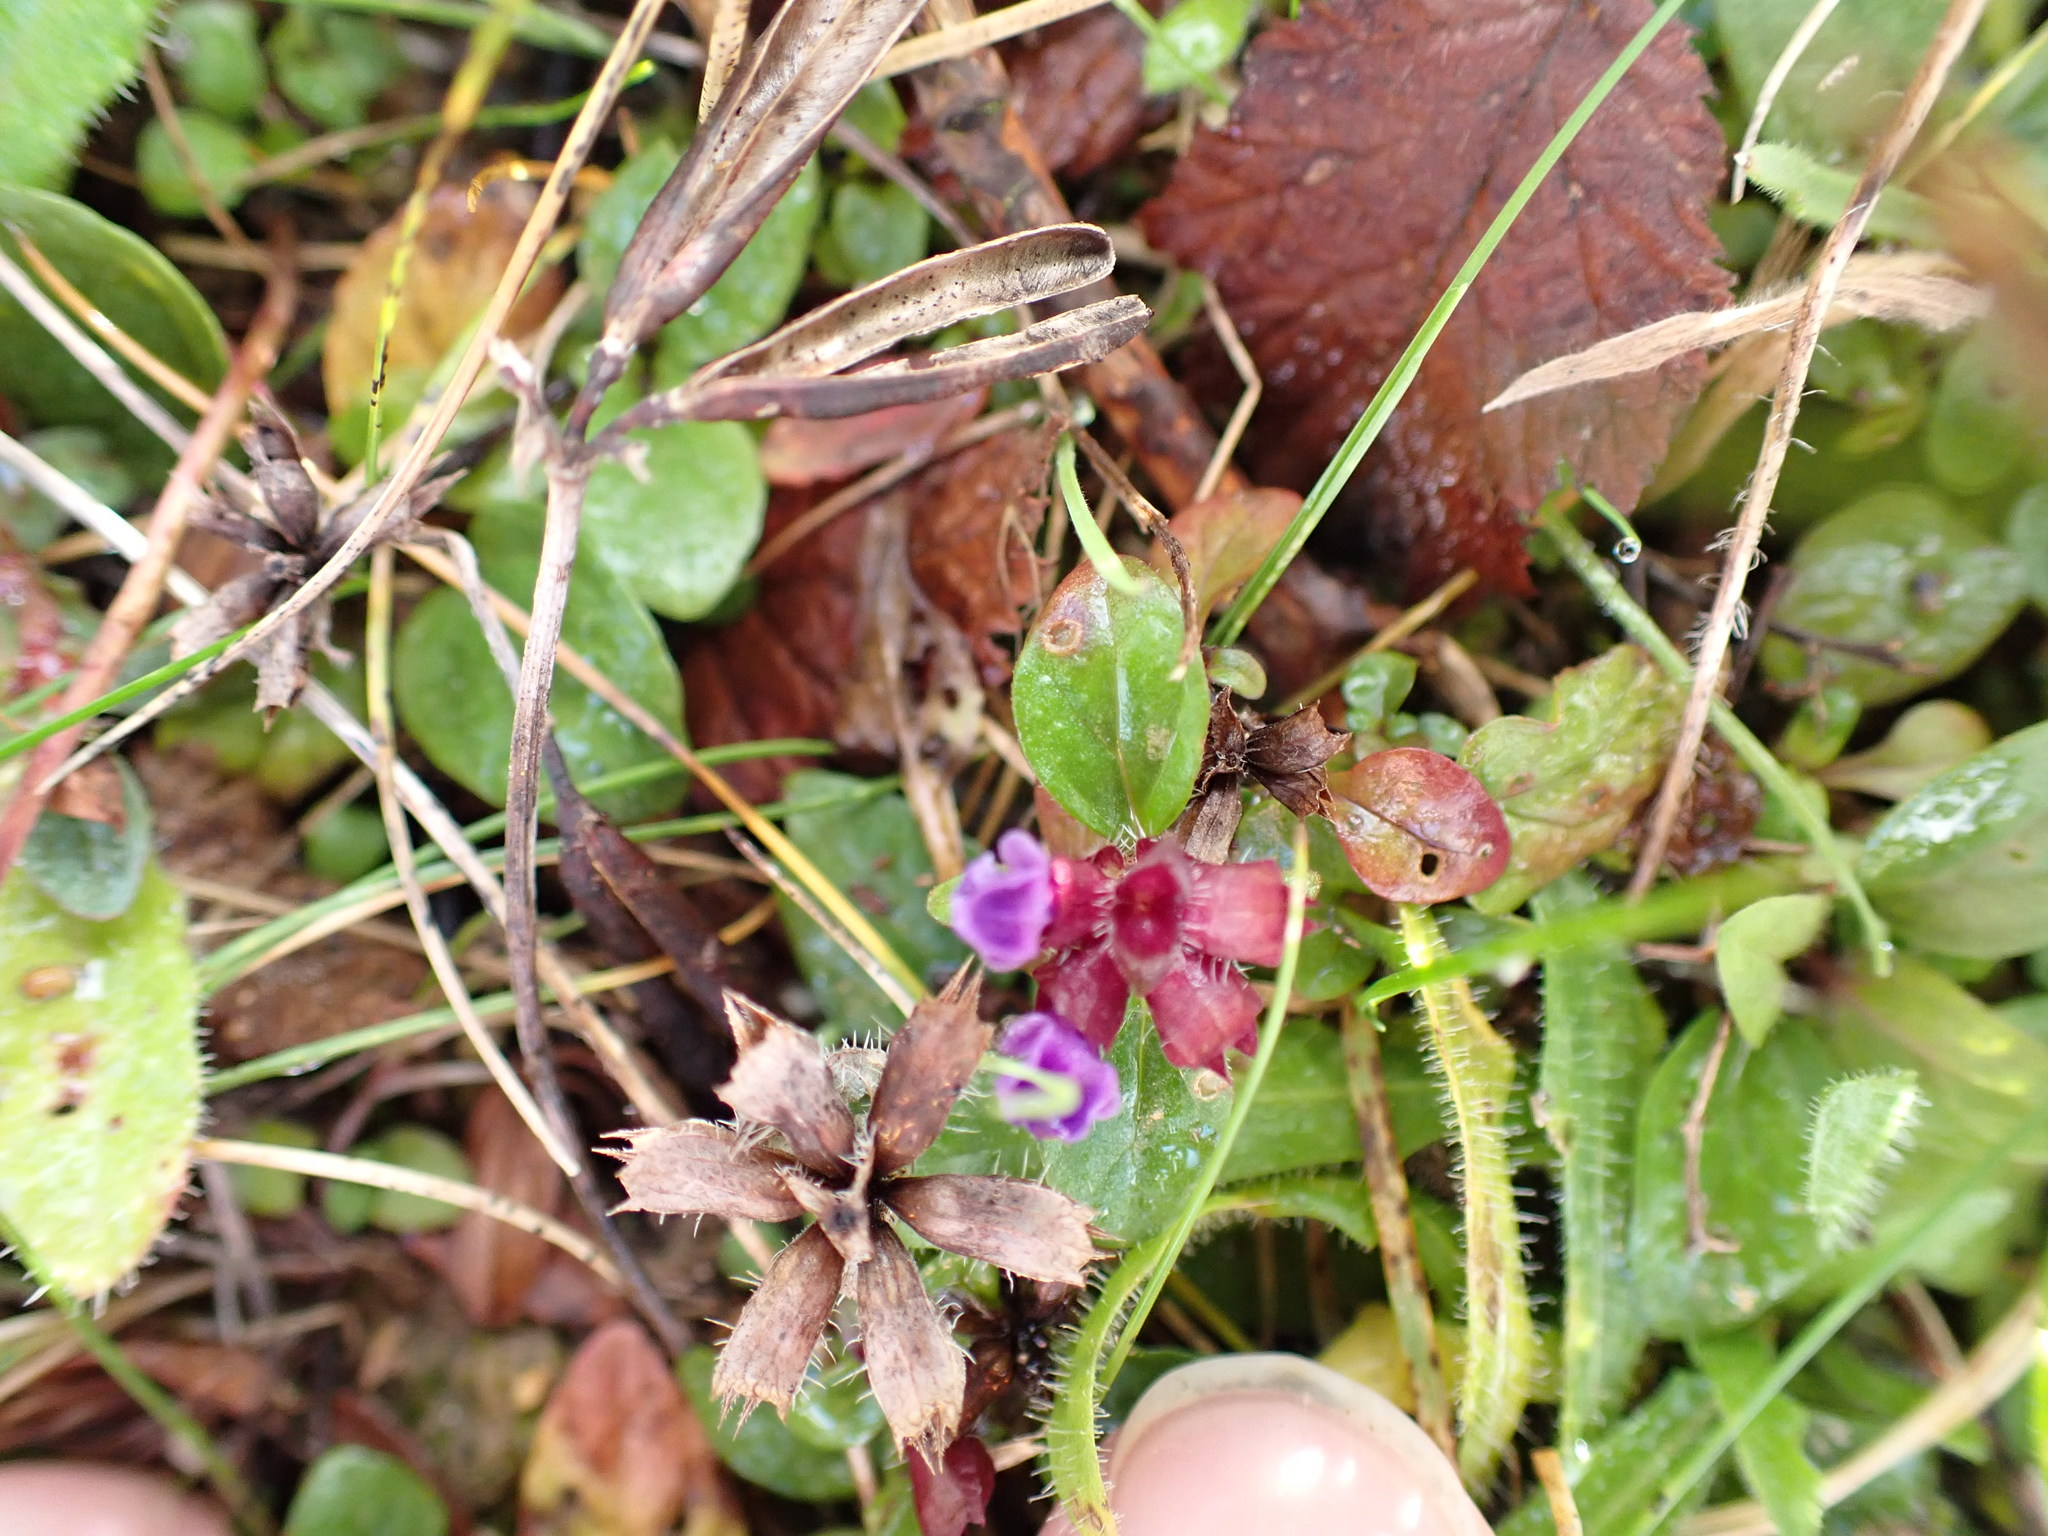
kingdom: Plantae
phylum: Tracheophyta
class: Magnoliopsida
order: Lamiales
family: Lamiaceae
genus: Prunella
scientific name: Prunella vulgaris
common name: Heal-all
